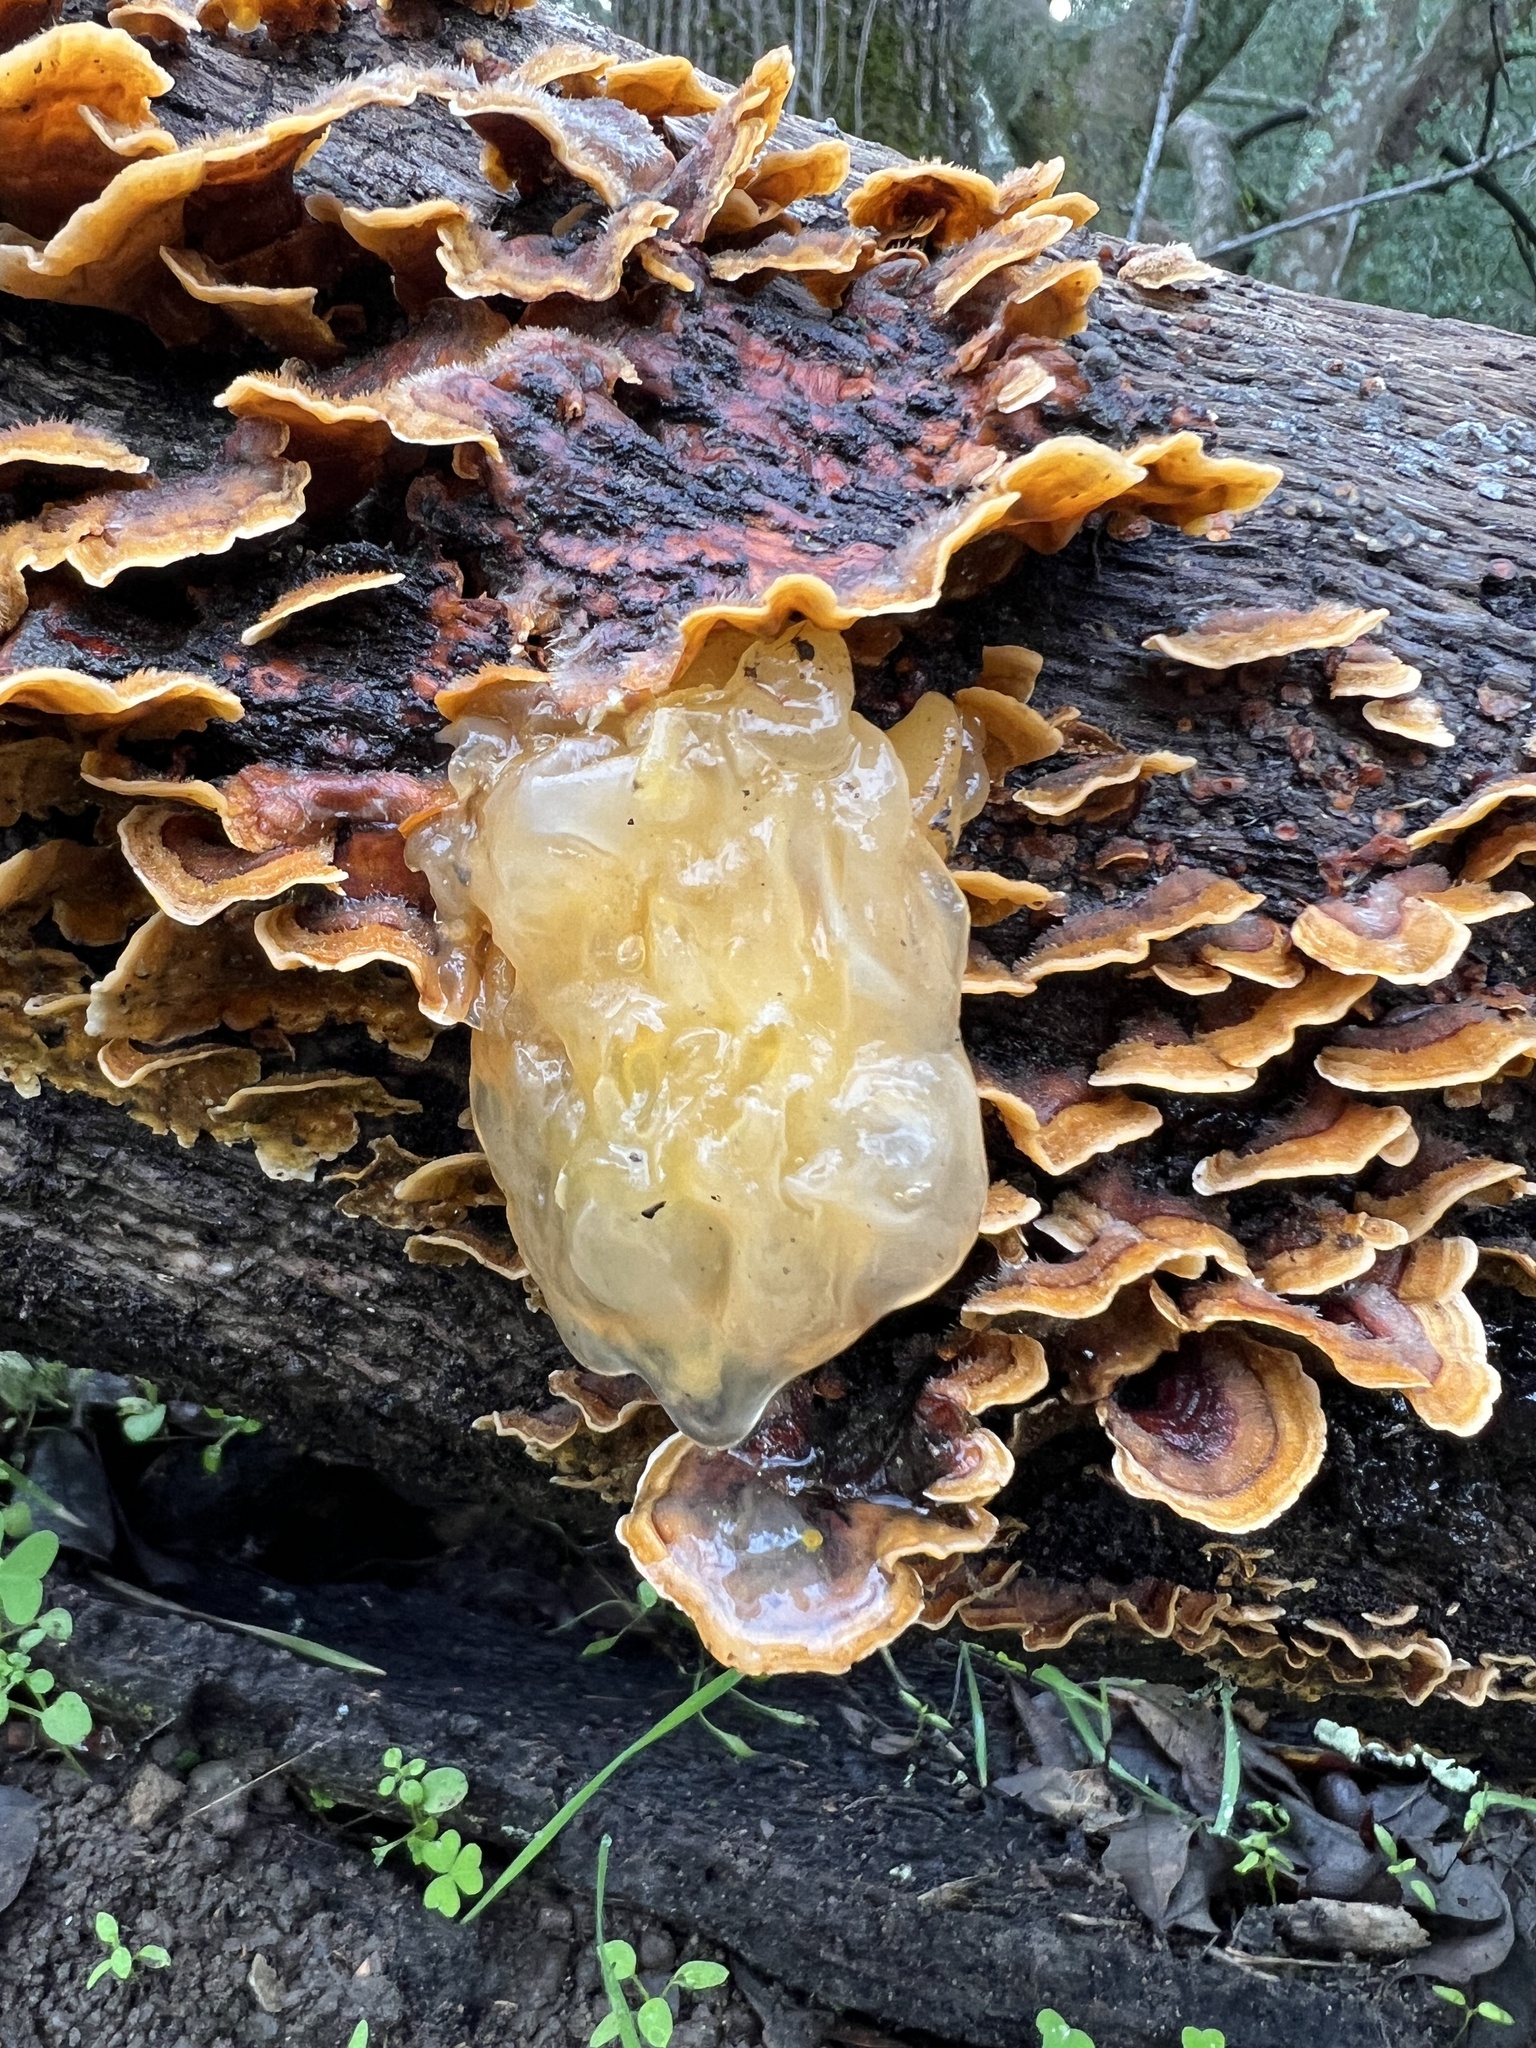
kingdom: Fungi
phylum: Basidiomycota
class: Tremellomycetes
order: Tremellales
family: Naemateliaceae
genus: Naematelia
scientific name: Naematelia aurantia
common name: Golden ear
